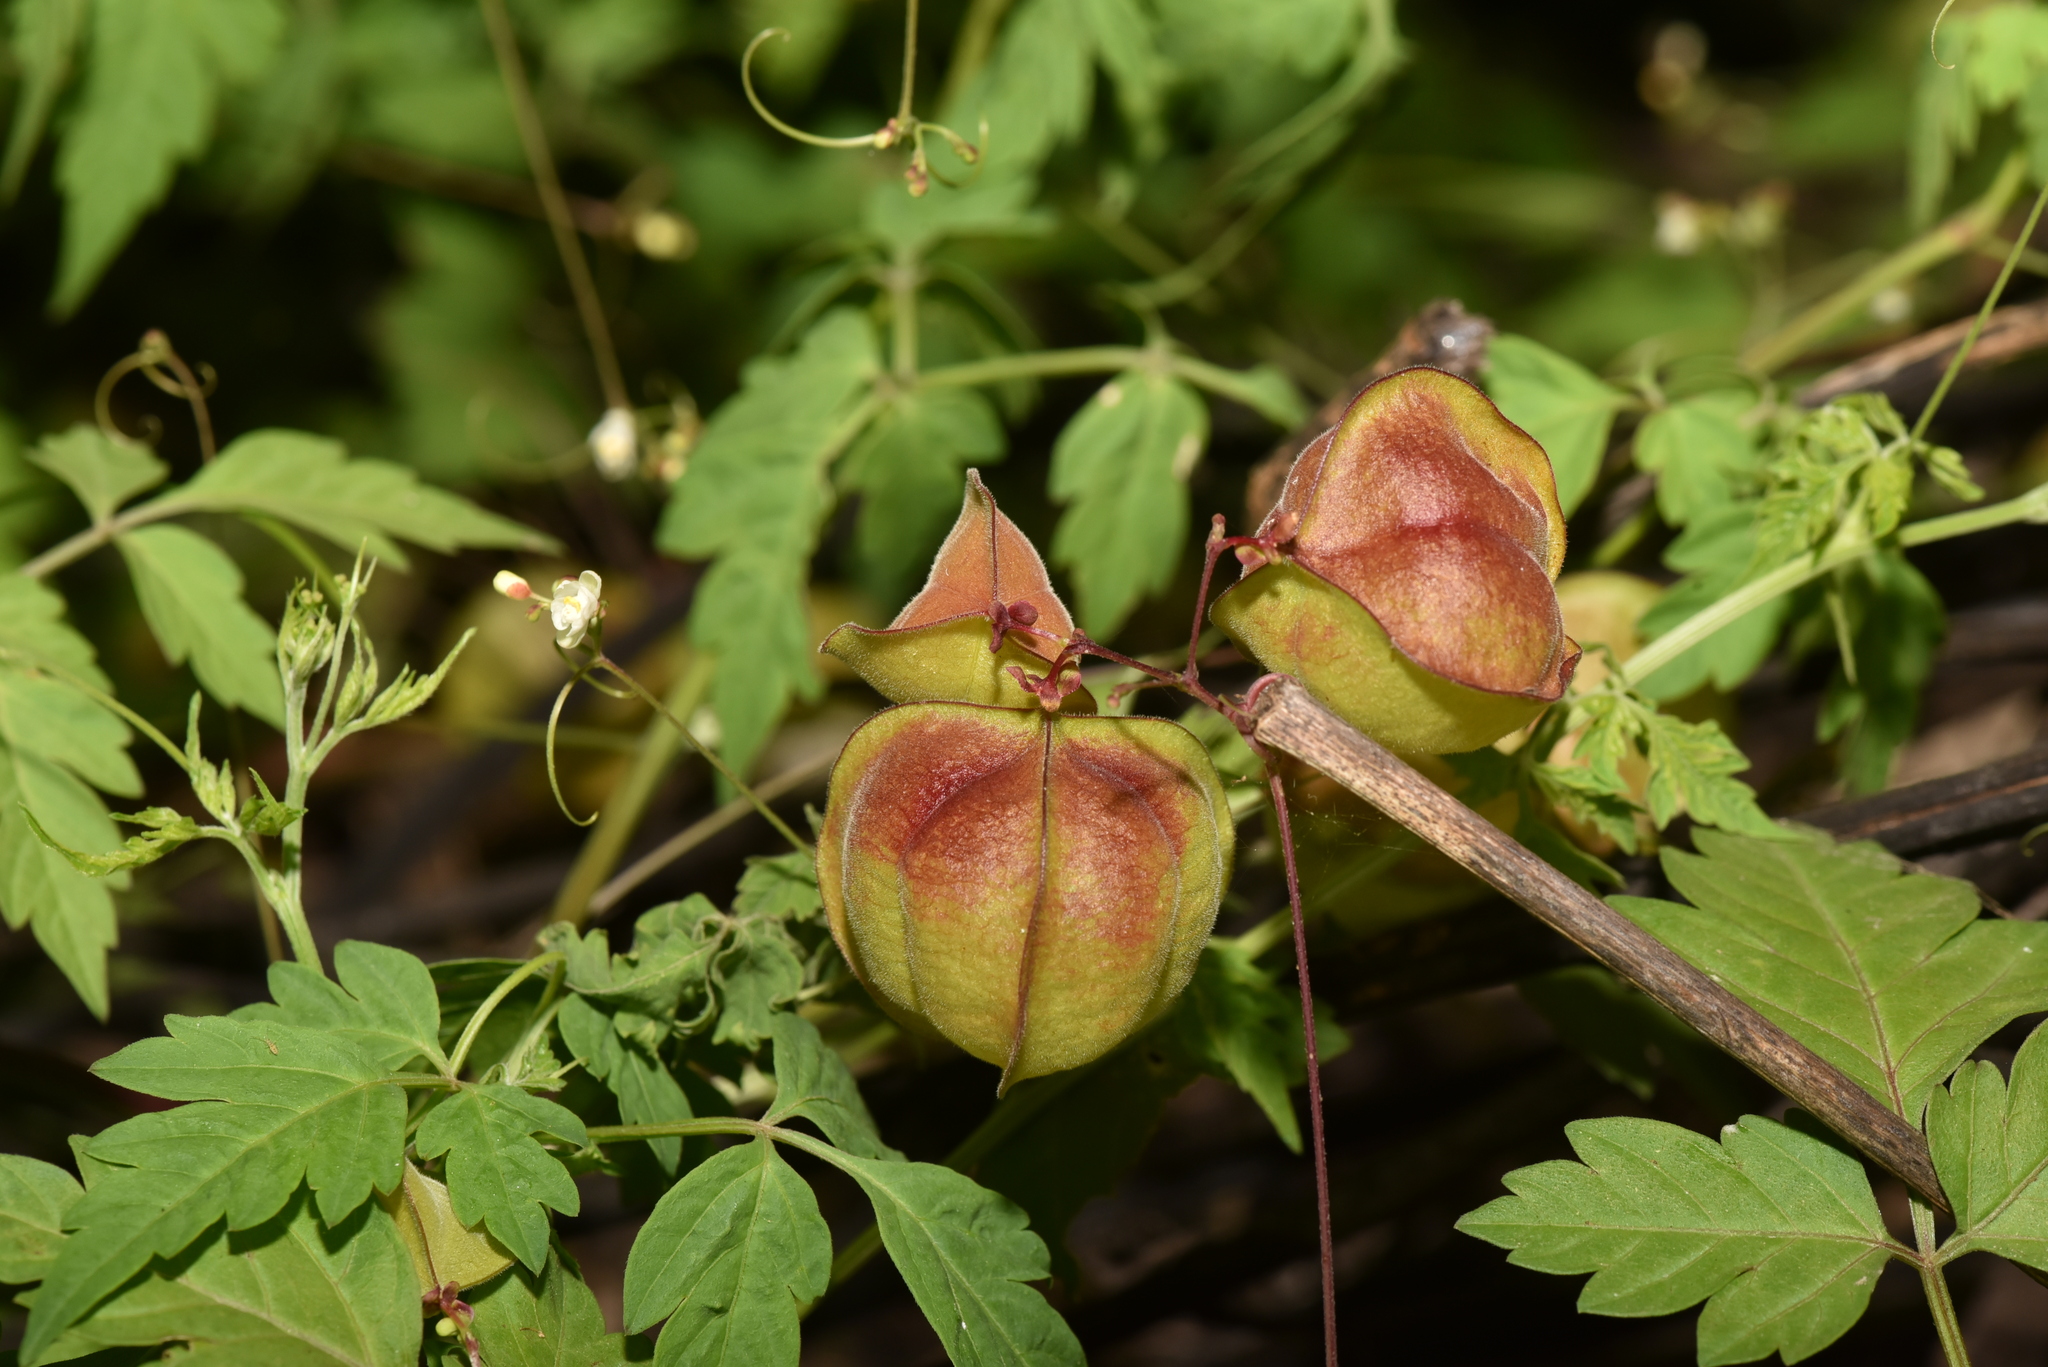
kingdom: Plantae
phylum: Tracheophyta
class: Magnoliopsida
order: Sapindales
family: Sapindaceae
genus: Cardiospermum
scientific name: Cardiospermum halicacabum
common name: Balloon vine
